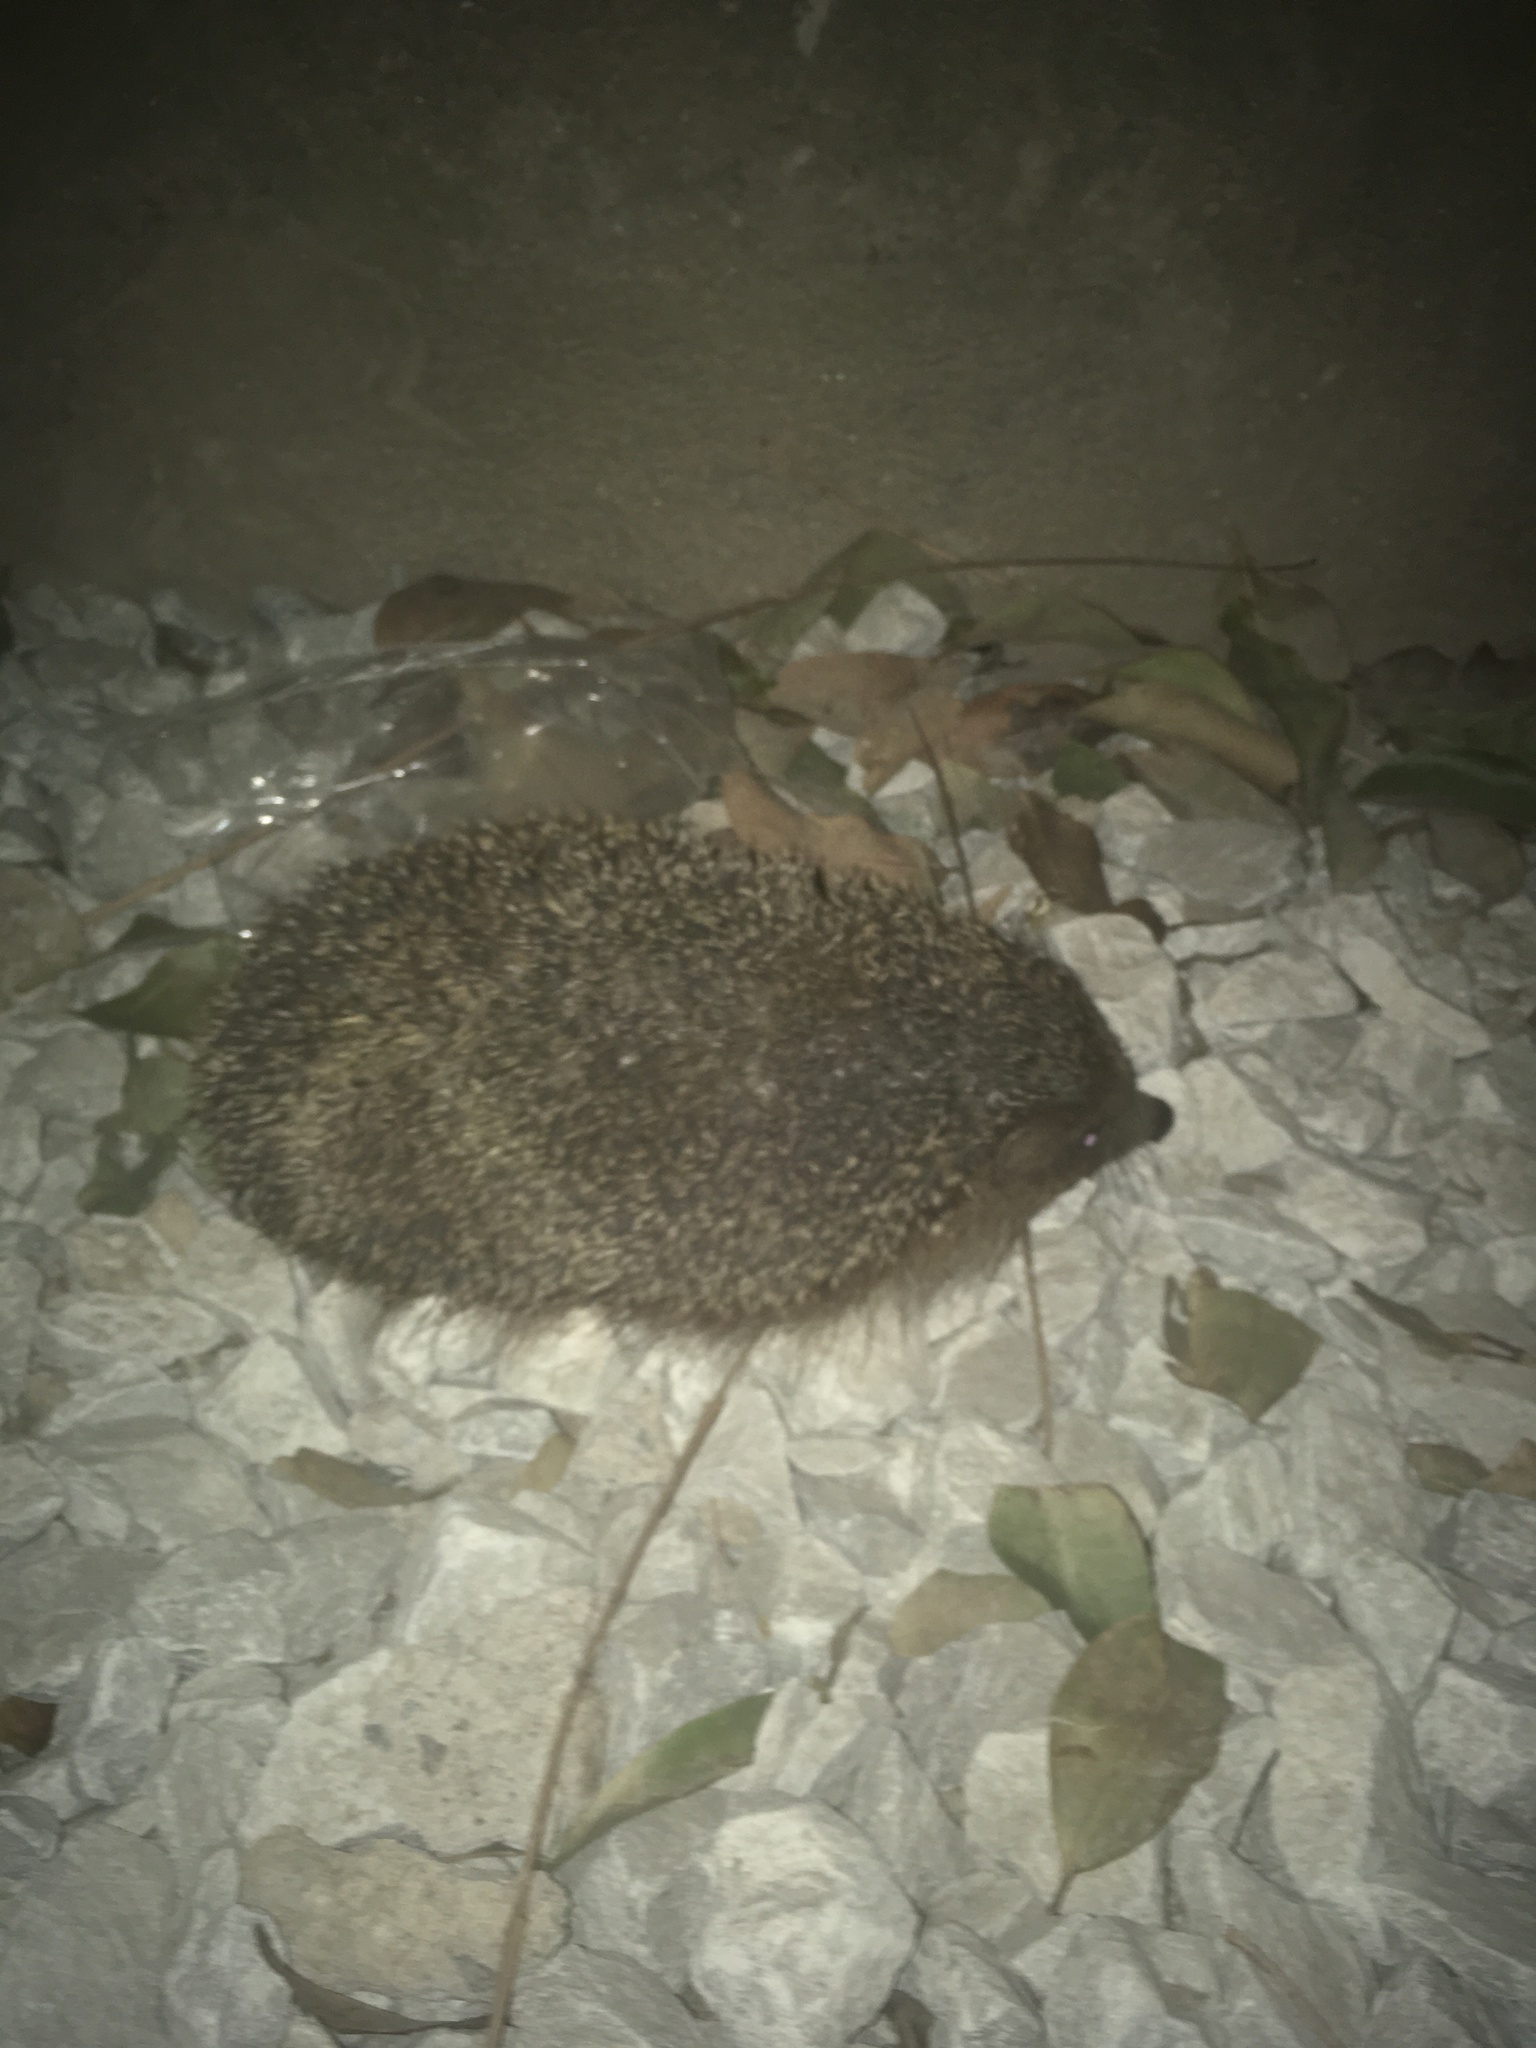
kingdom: Animalia
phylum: Chordata
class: Mammalia
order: Erinaceomorpha
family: Erinaceidae
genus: Erinaceus
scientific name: Erinaceus roumanicus
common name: Northern white-breasted hedgehog
